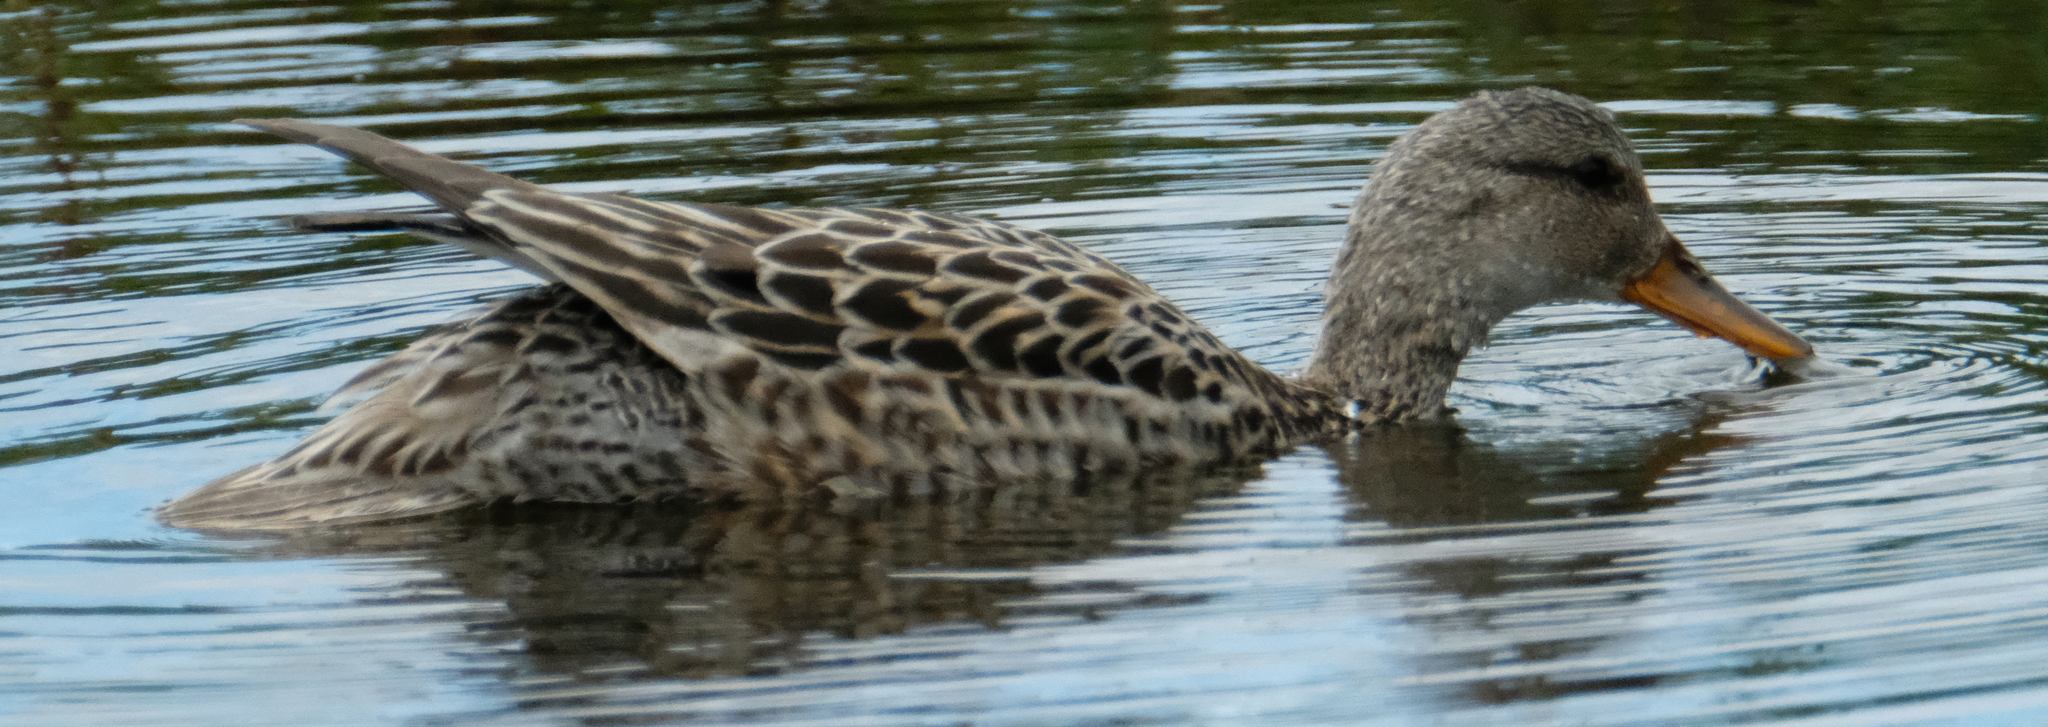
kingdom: Animalia
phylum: Chordata
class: Aves
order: Anseriformes
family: Anatidae
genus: Mareca
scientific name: Mareca strepera
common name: Gadwall
